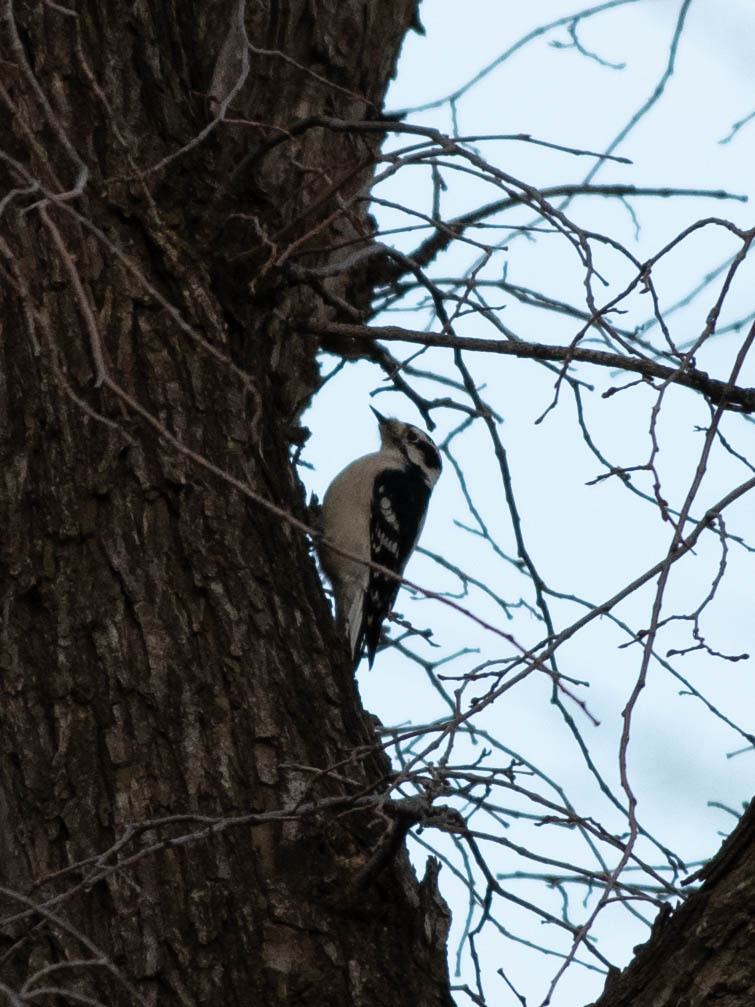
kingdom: Animalia
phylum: Chordata
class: Aves
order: Piciformes
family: Picidae
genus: Dryobates
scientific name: Dryobates pubescens
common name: Downy woodpecker
